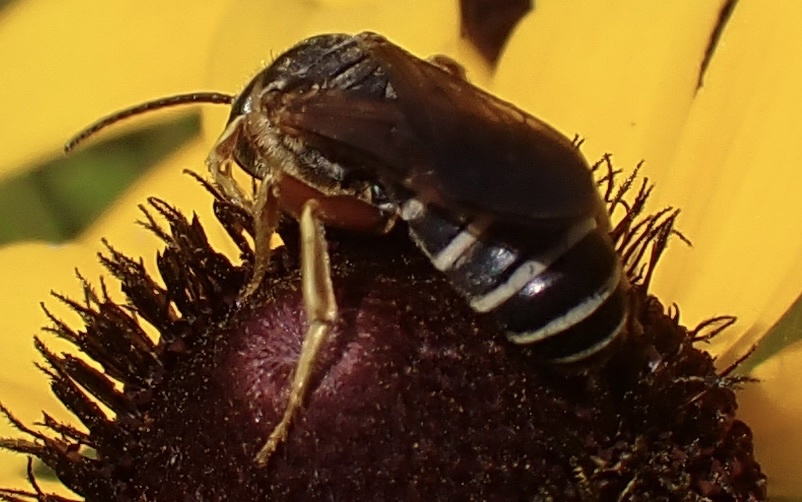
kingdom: Animalia
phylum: Arthropoda
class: Insecta
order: Hymenoptera
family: Halictidae
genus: Halictus
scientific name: Halictus parallelus
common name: Parallel-striped sweat bee
